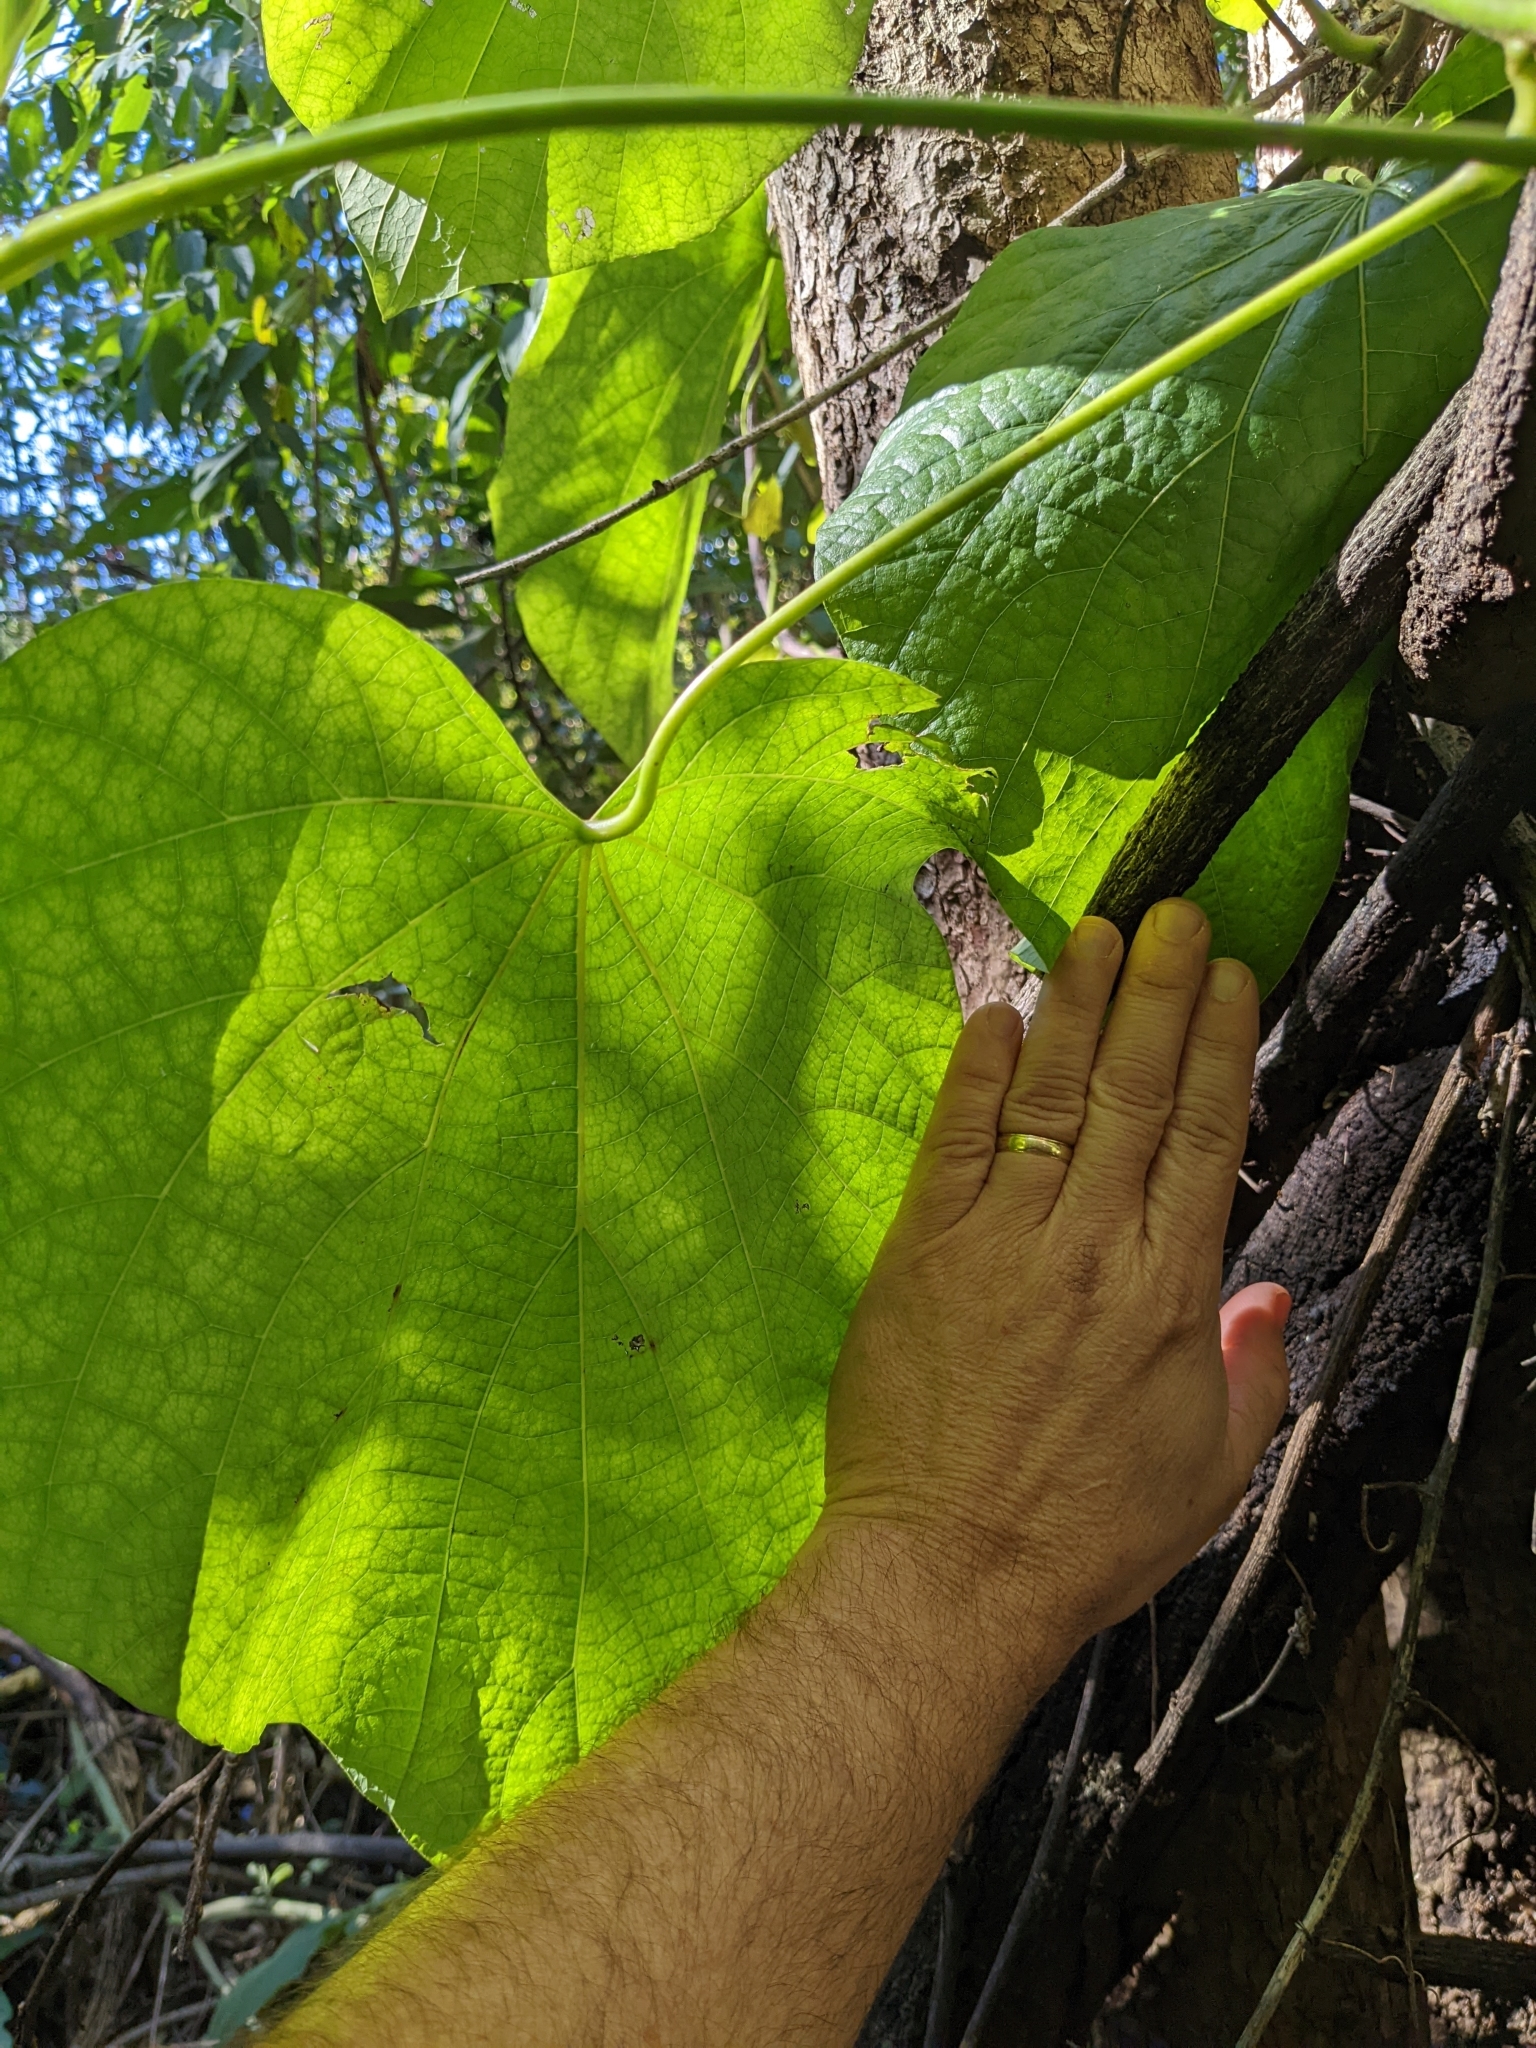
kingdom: Plantae
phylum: Tracheophyta
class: Magnoliopsida
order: Ranunculales
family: Menispermaceae
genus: Legnephora
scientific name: Legnephora moorei
